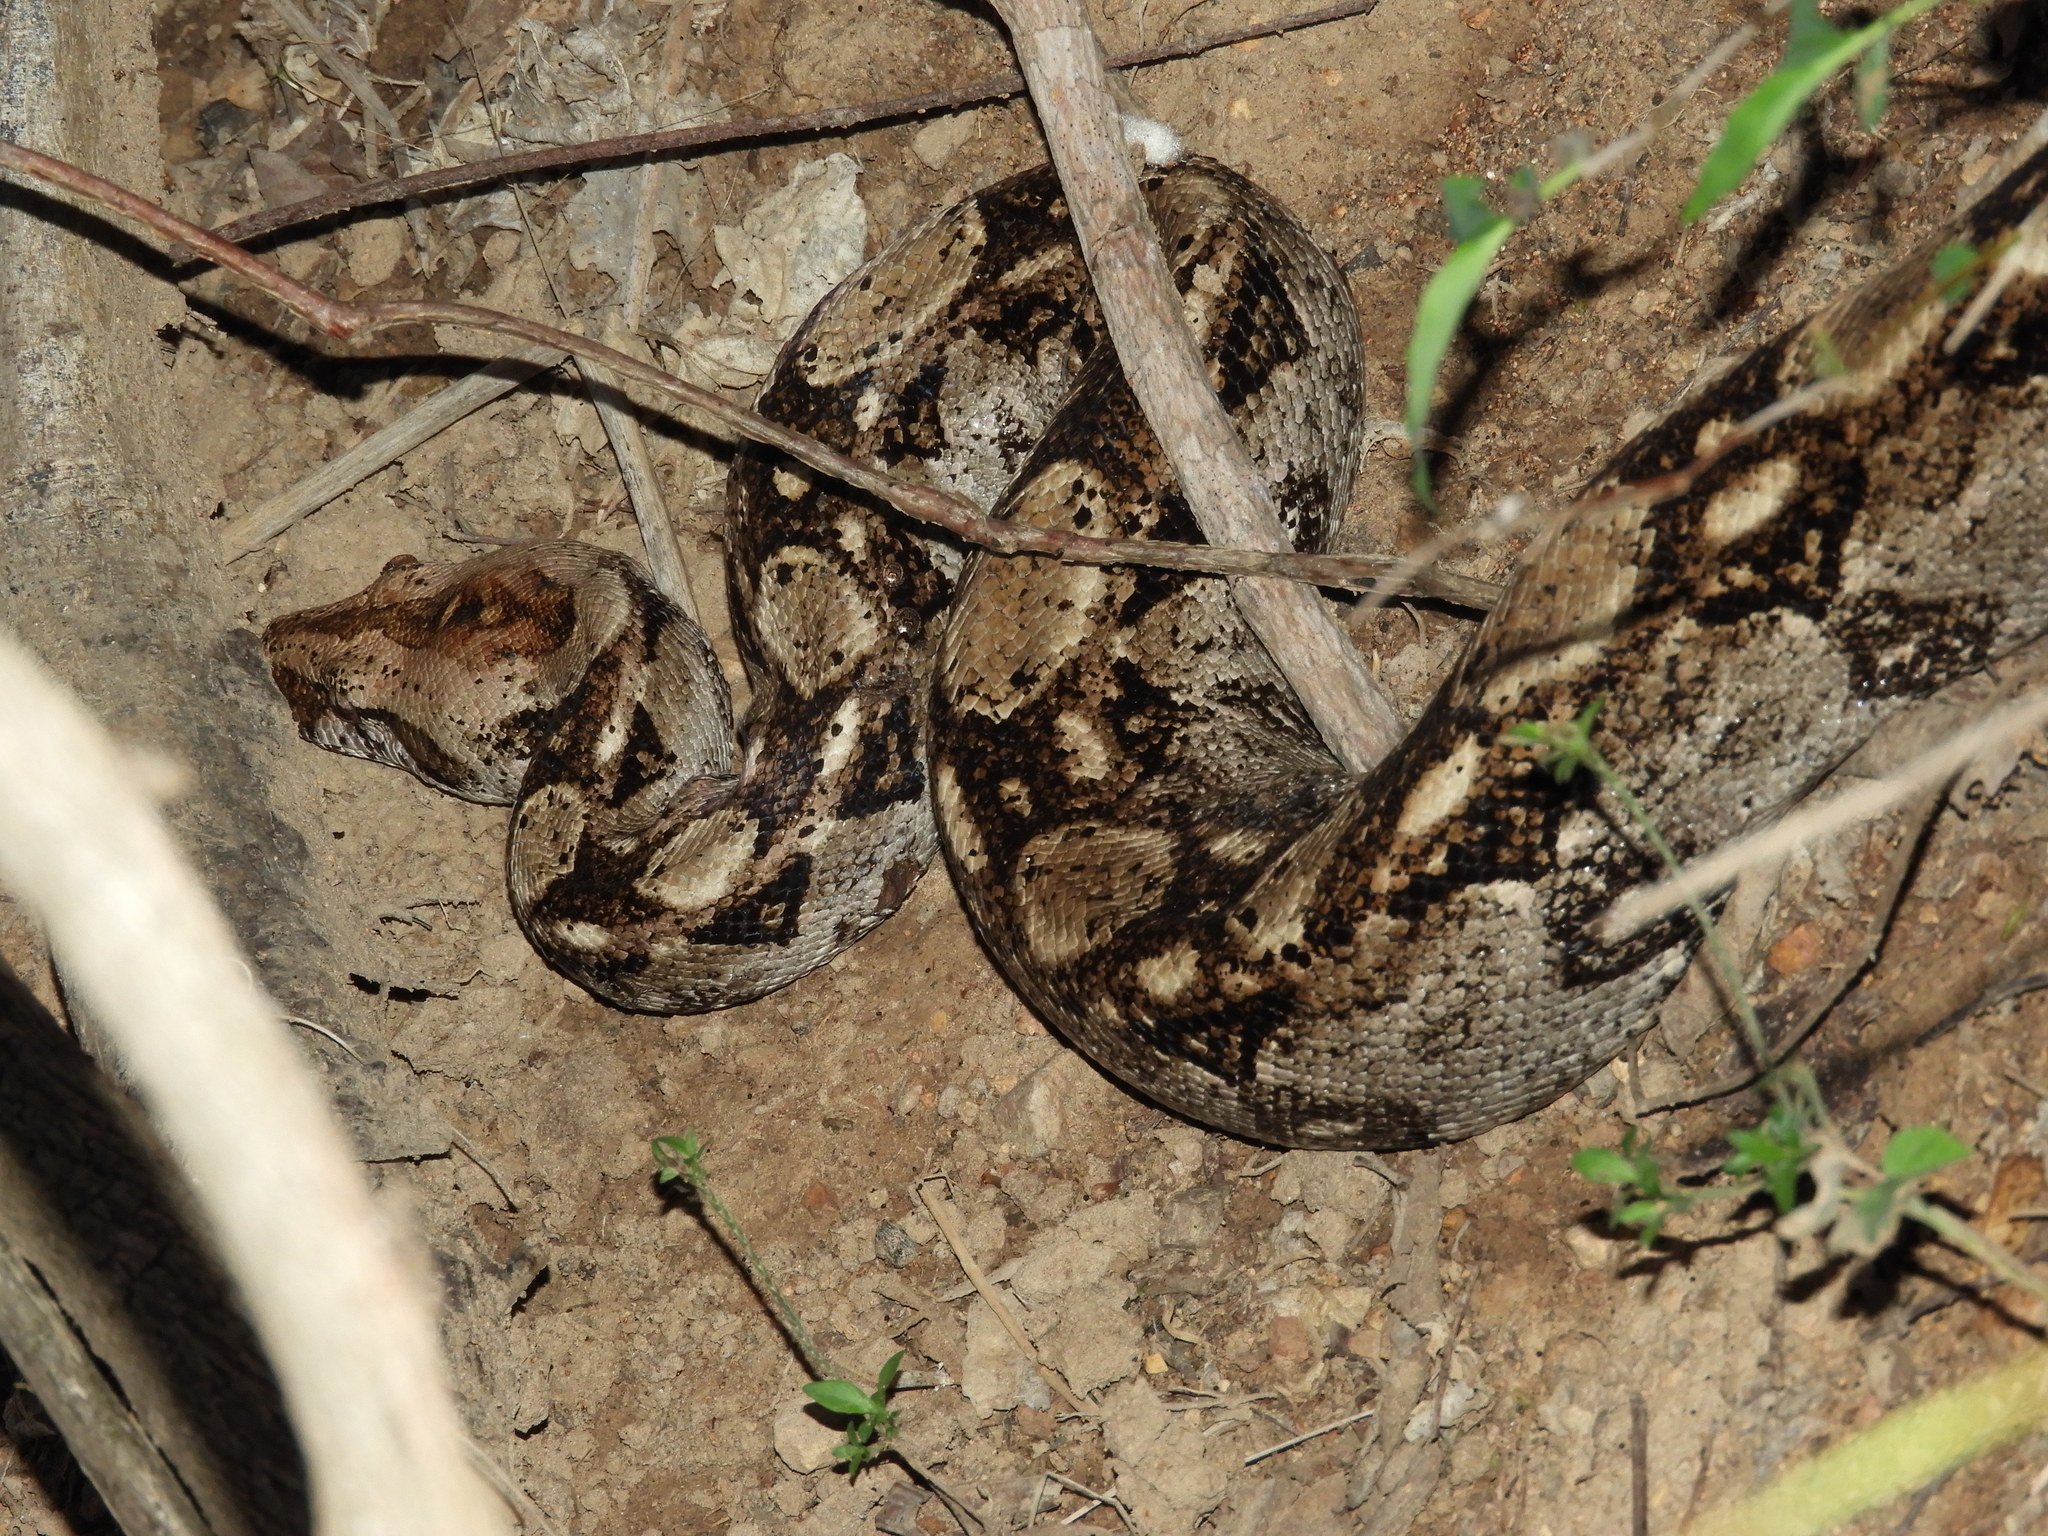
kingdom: Animalia
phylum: Chordata
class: Squamata
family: Boidae
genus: Boa
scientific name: Boa
